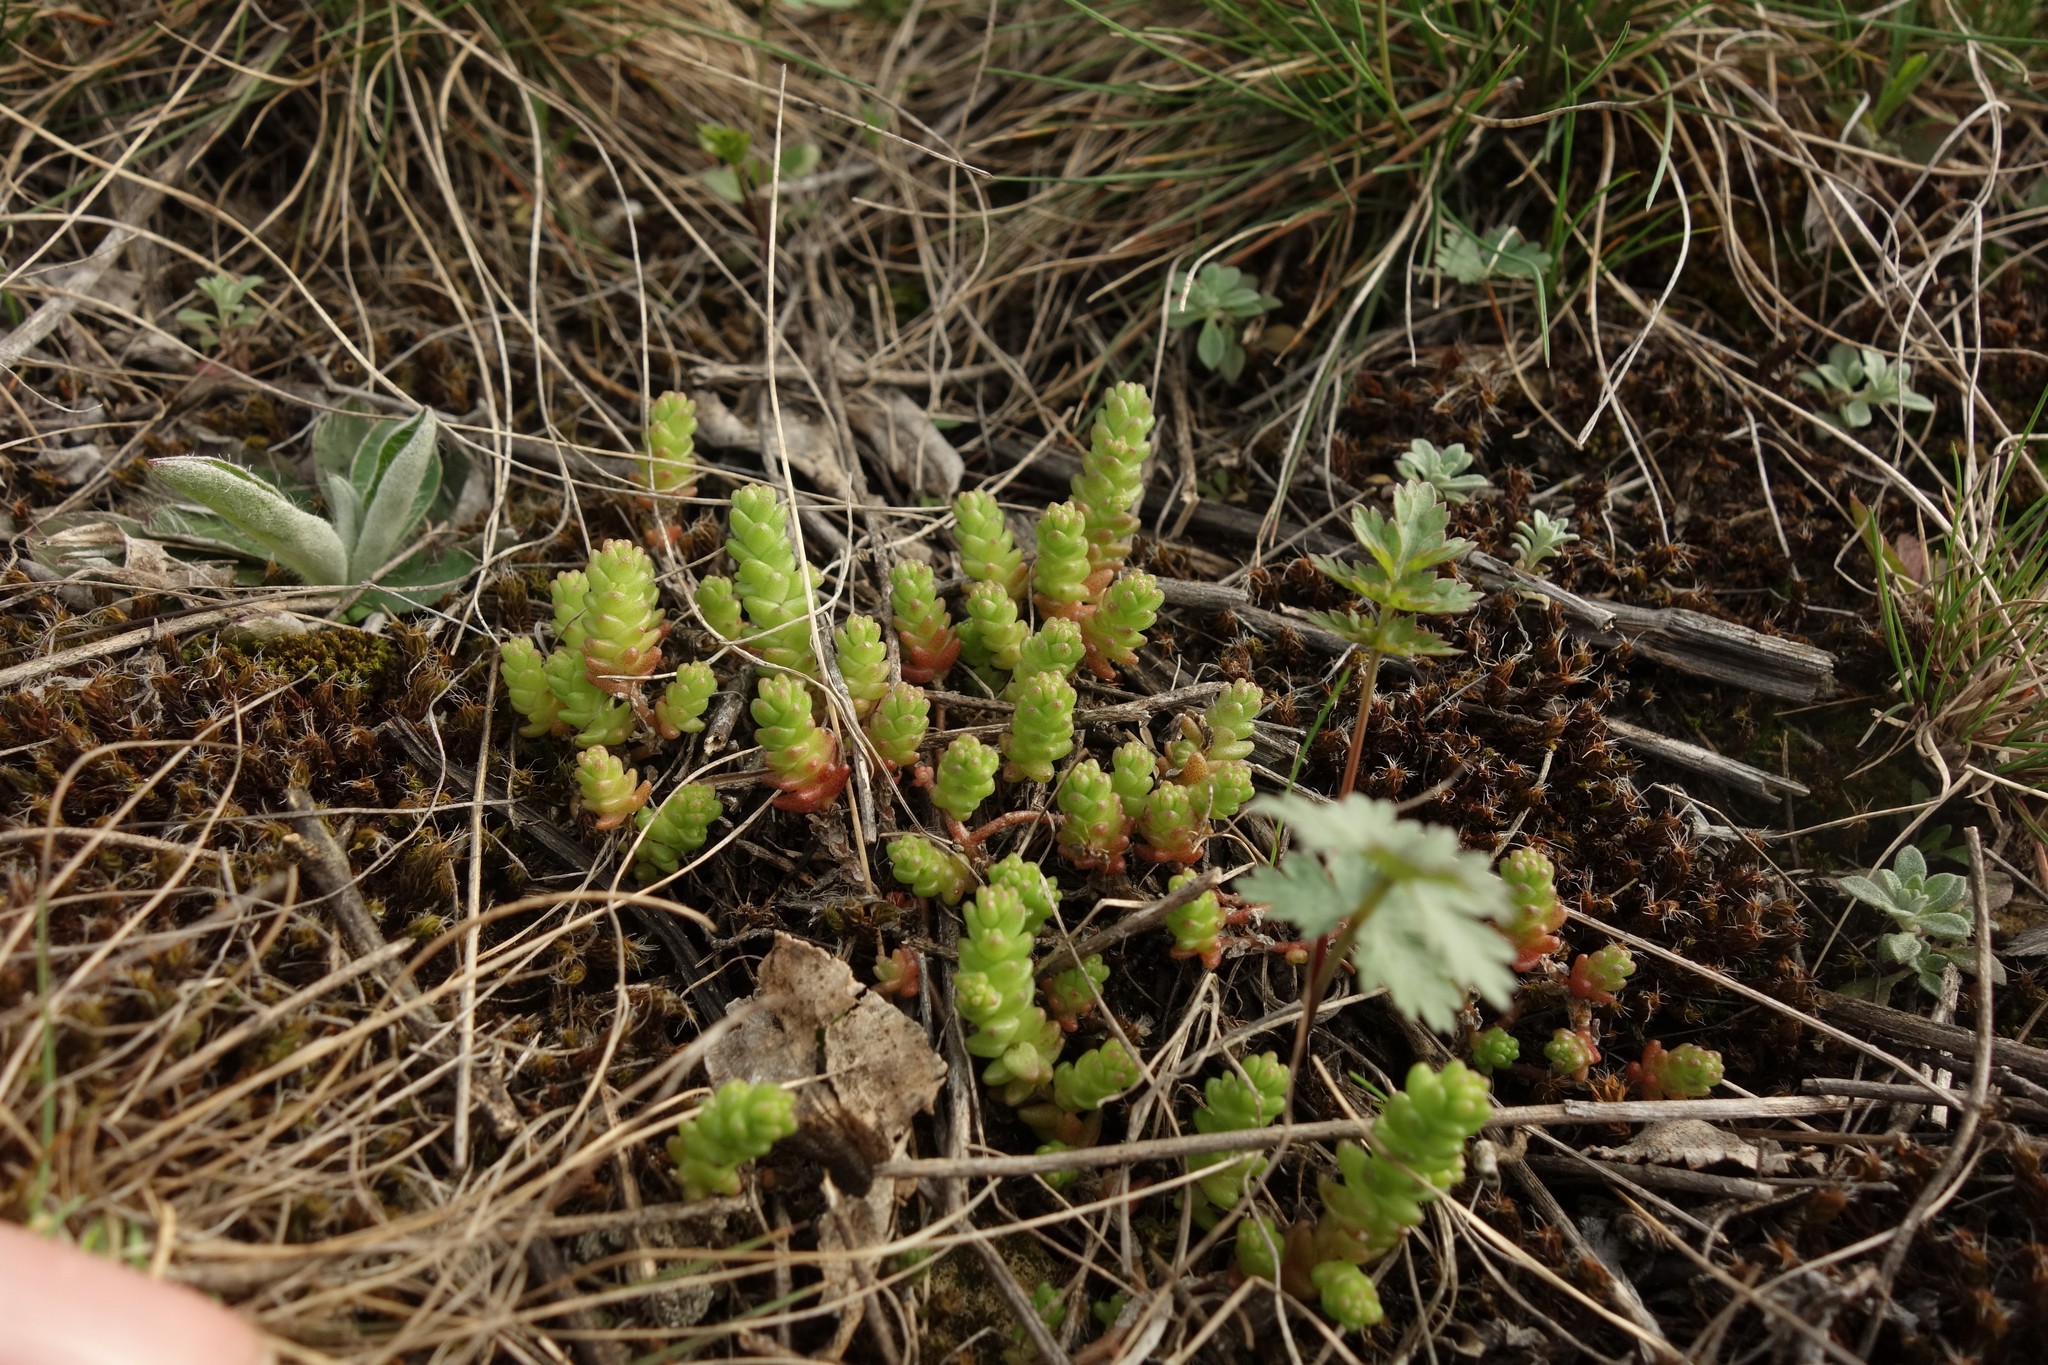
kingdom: Plantae
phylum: Tracheophyta
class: Magnoliopsida
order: Saxifragales
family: Crassulaceae
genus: Sedum
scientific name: Sedum acre
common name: Biting stonecrop
